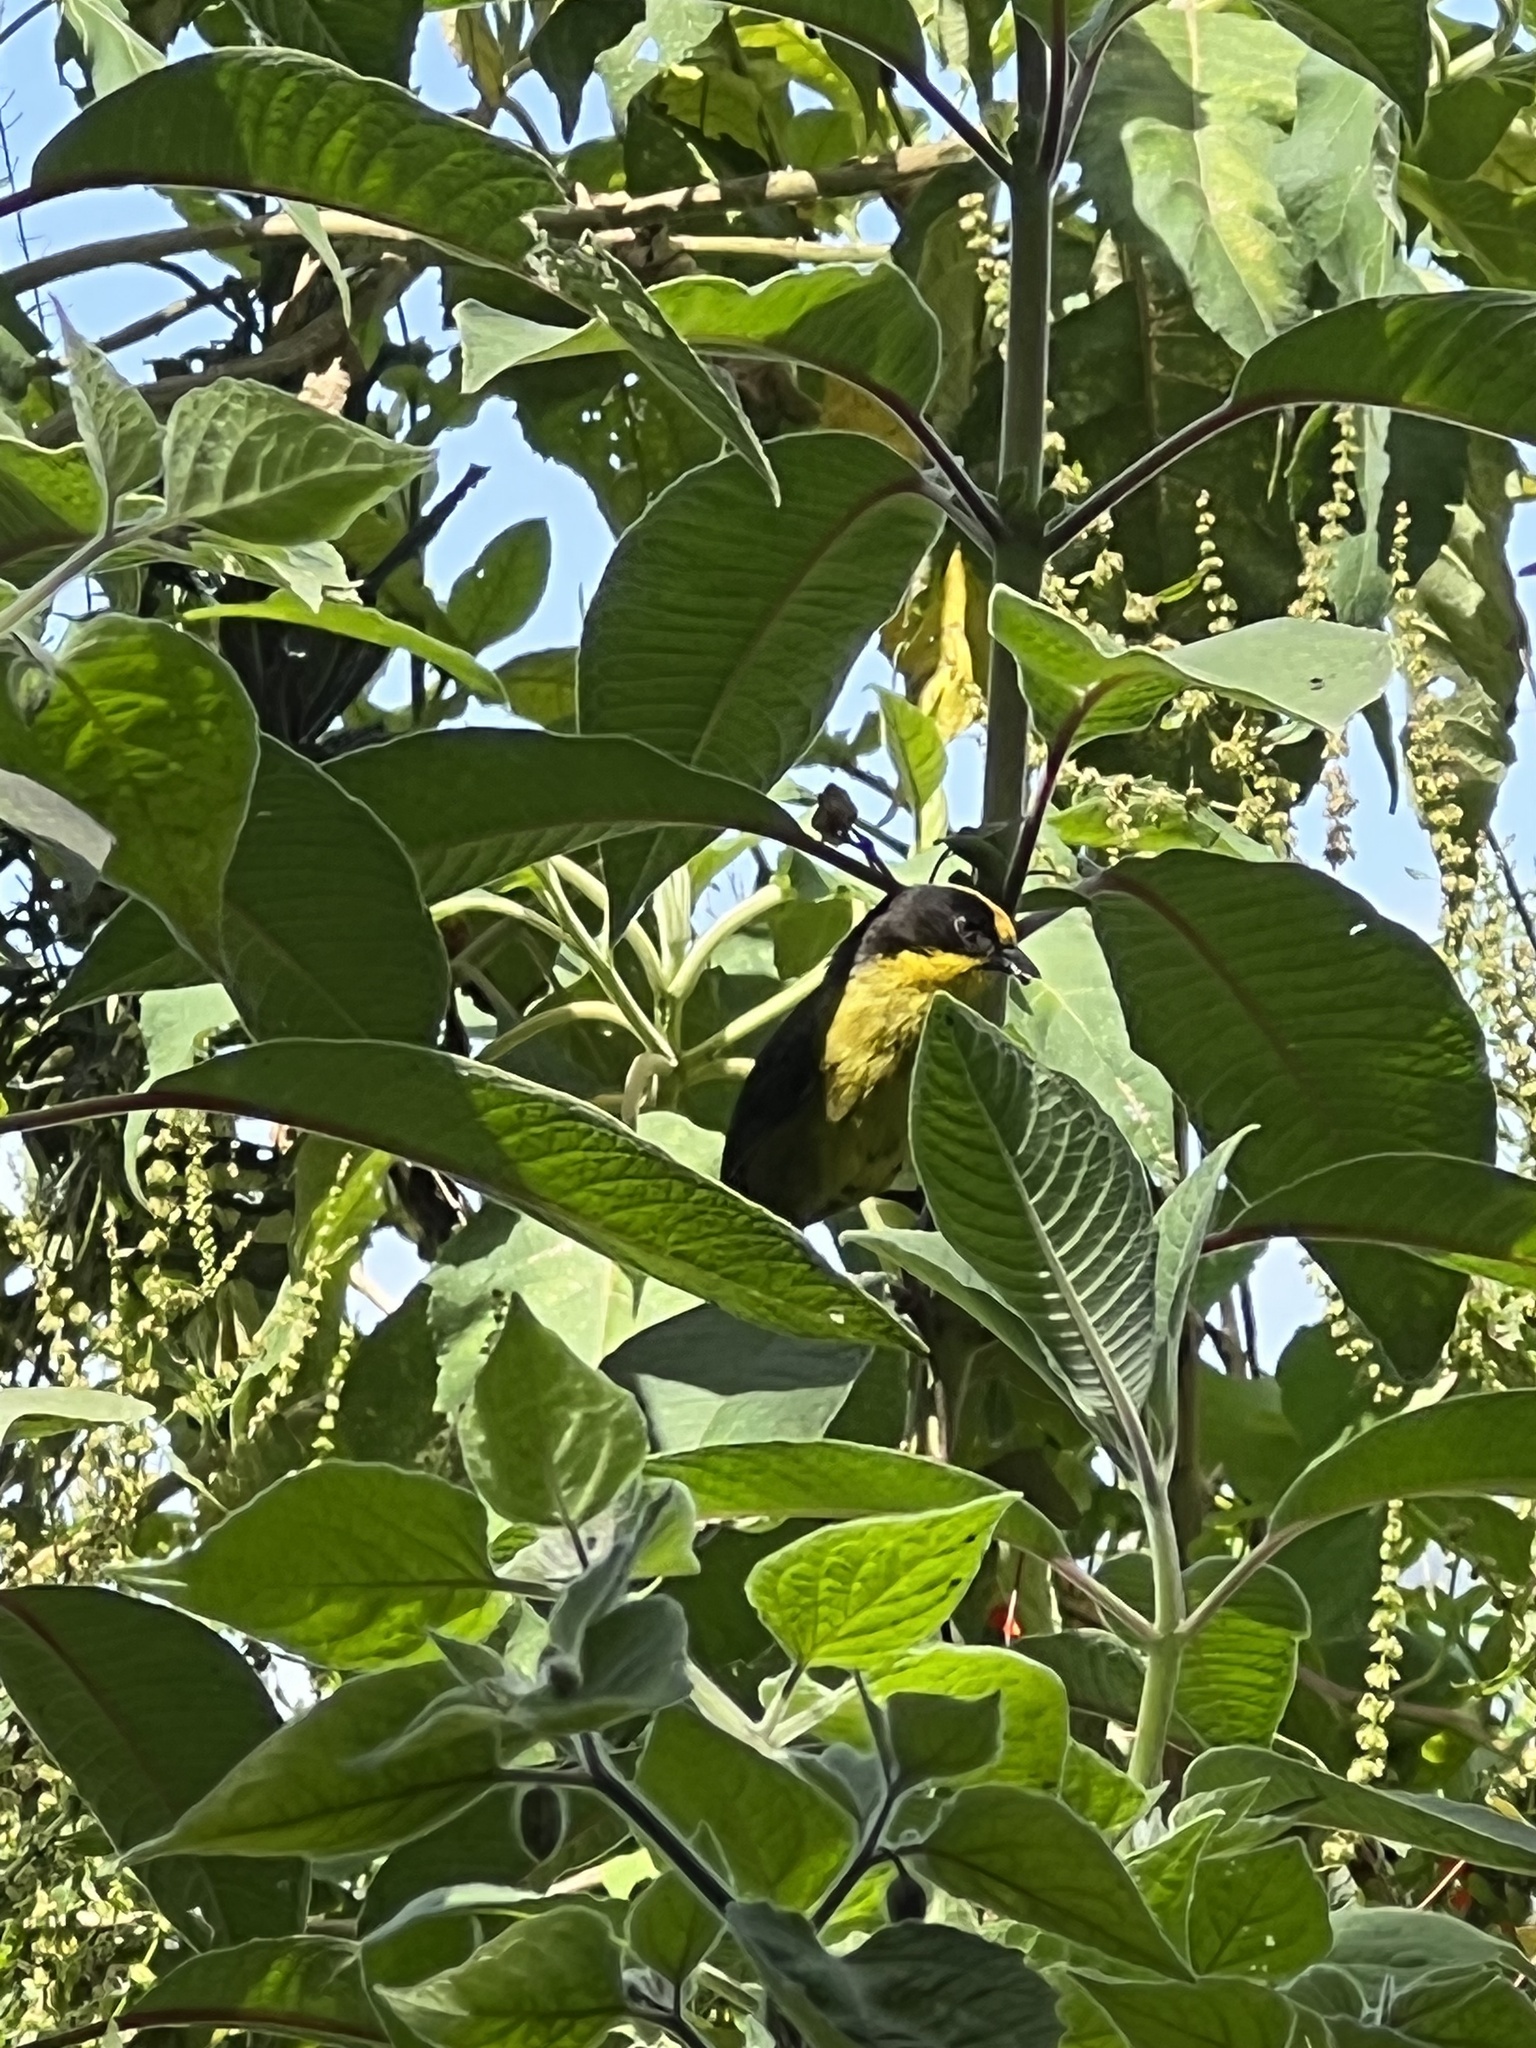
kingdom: Animalia
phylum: Chordata
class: Aves
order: Passeriformes
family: Passerellidae
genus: Atlapetes
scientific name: Atlapetes pallidinucha
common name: Pale-naped brushfinch
